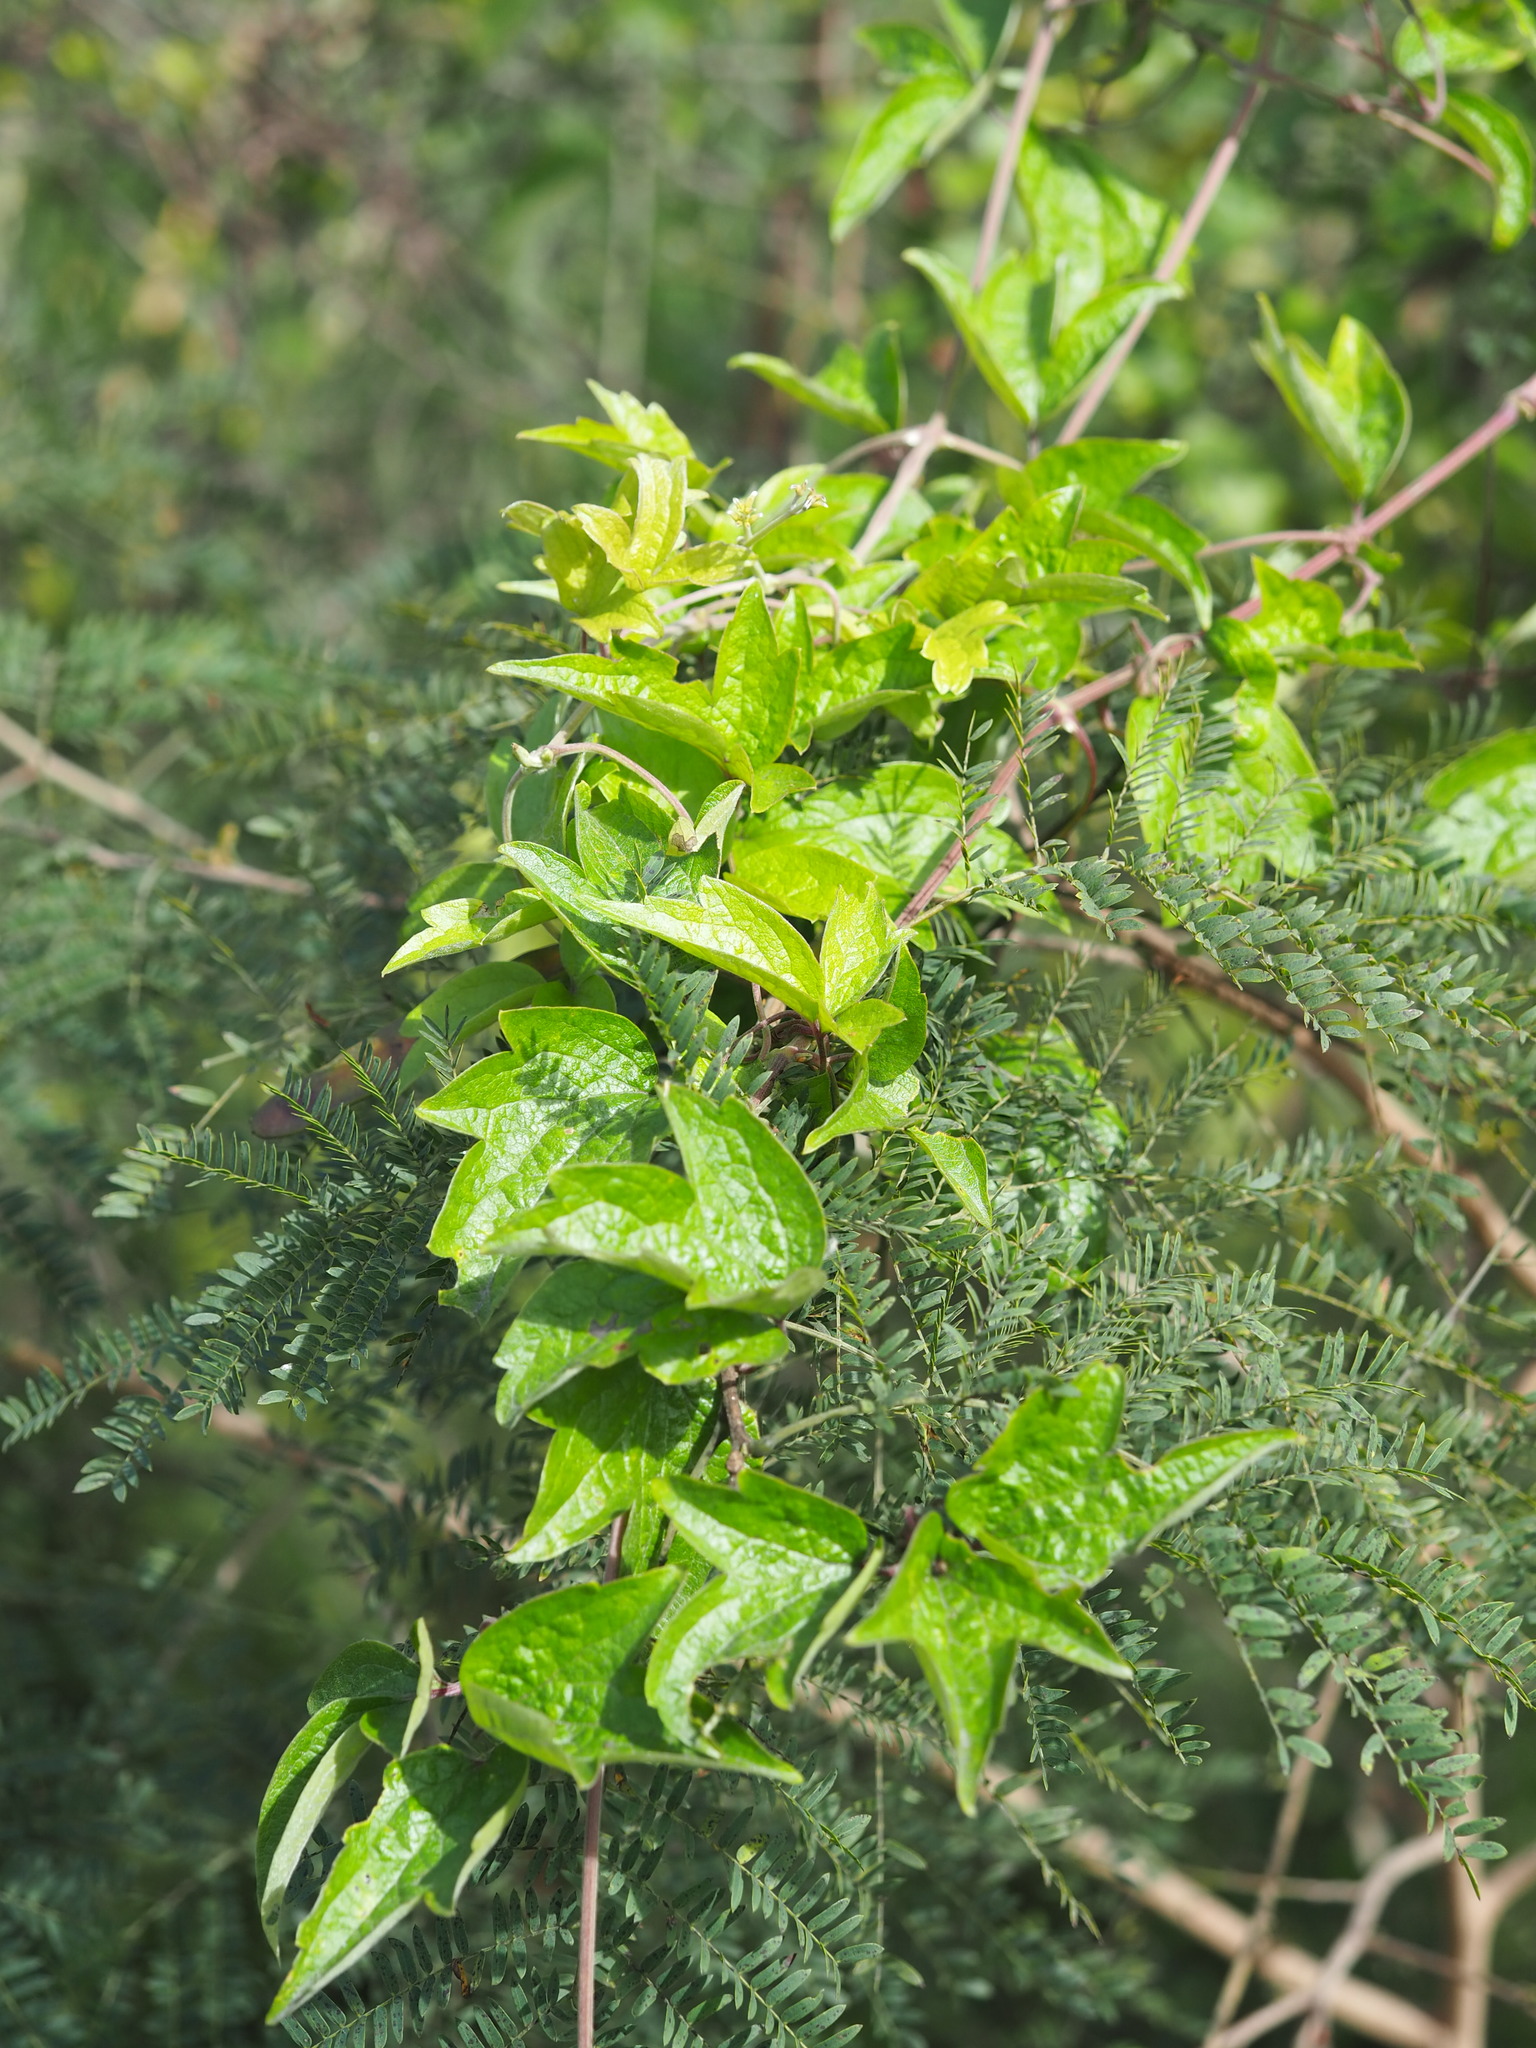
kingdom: Plantae
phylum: Tracheophyta
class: Magnoliopsida
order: Ranunculales
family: Ranunculaceae
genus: Clematis
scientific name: Clematis grata
